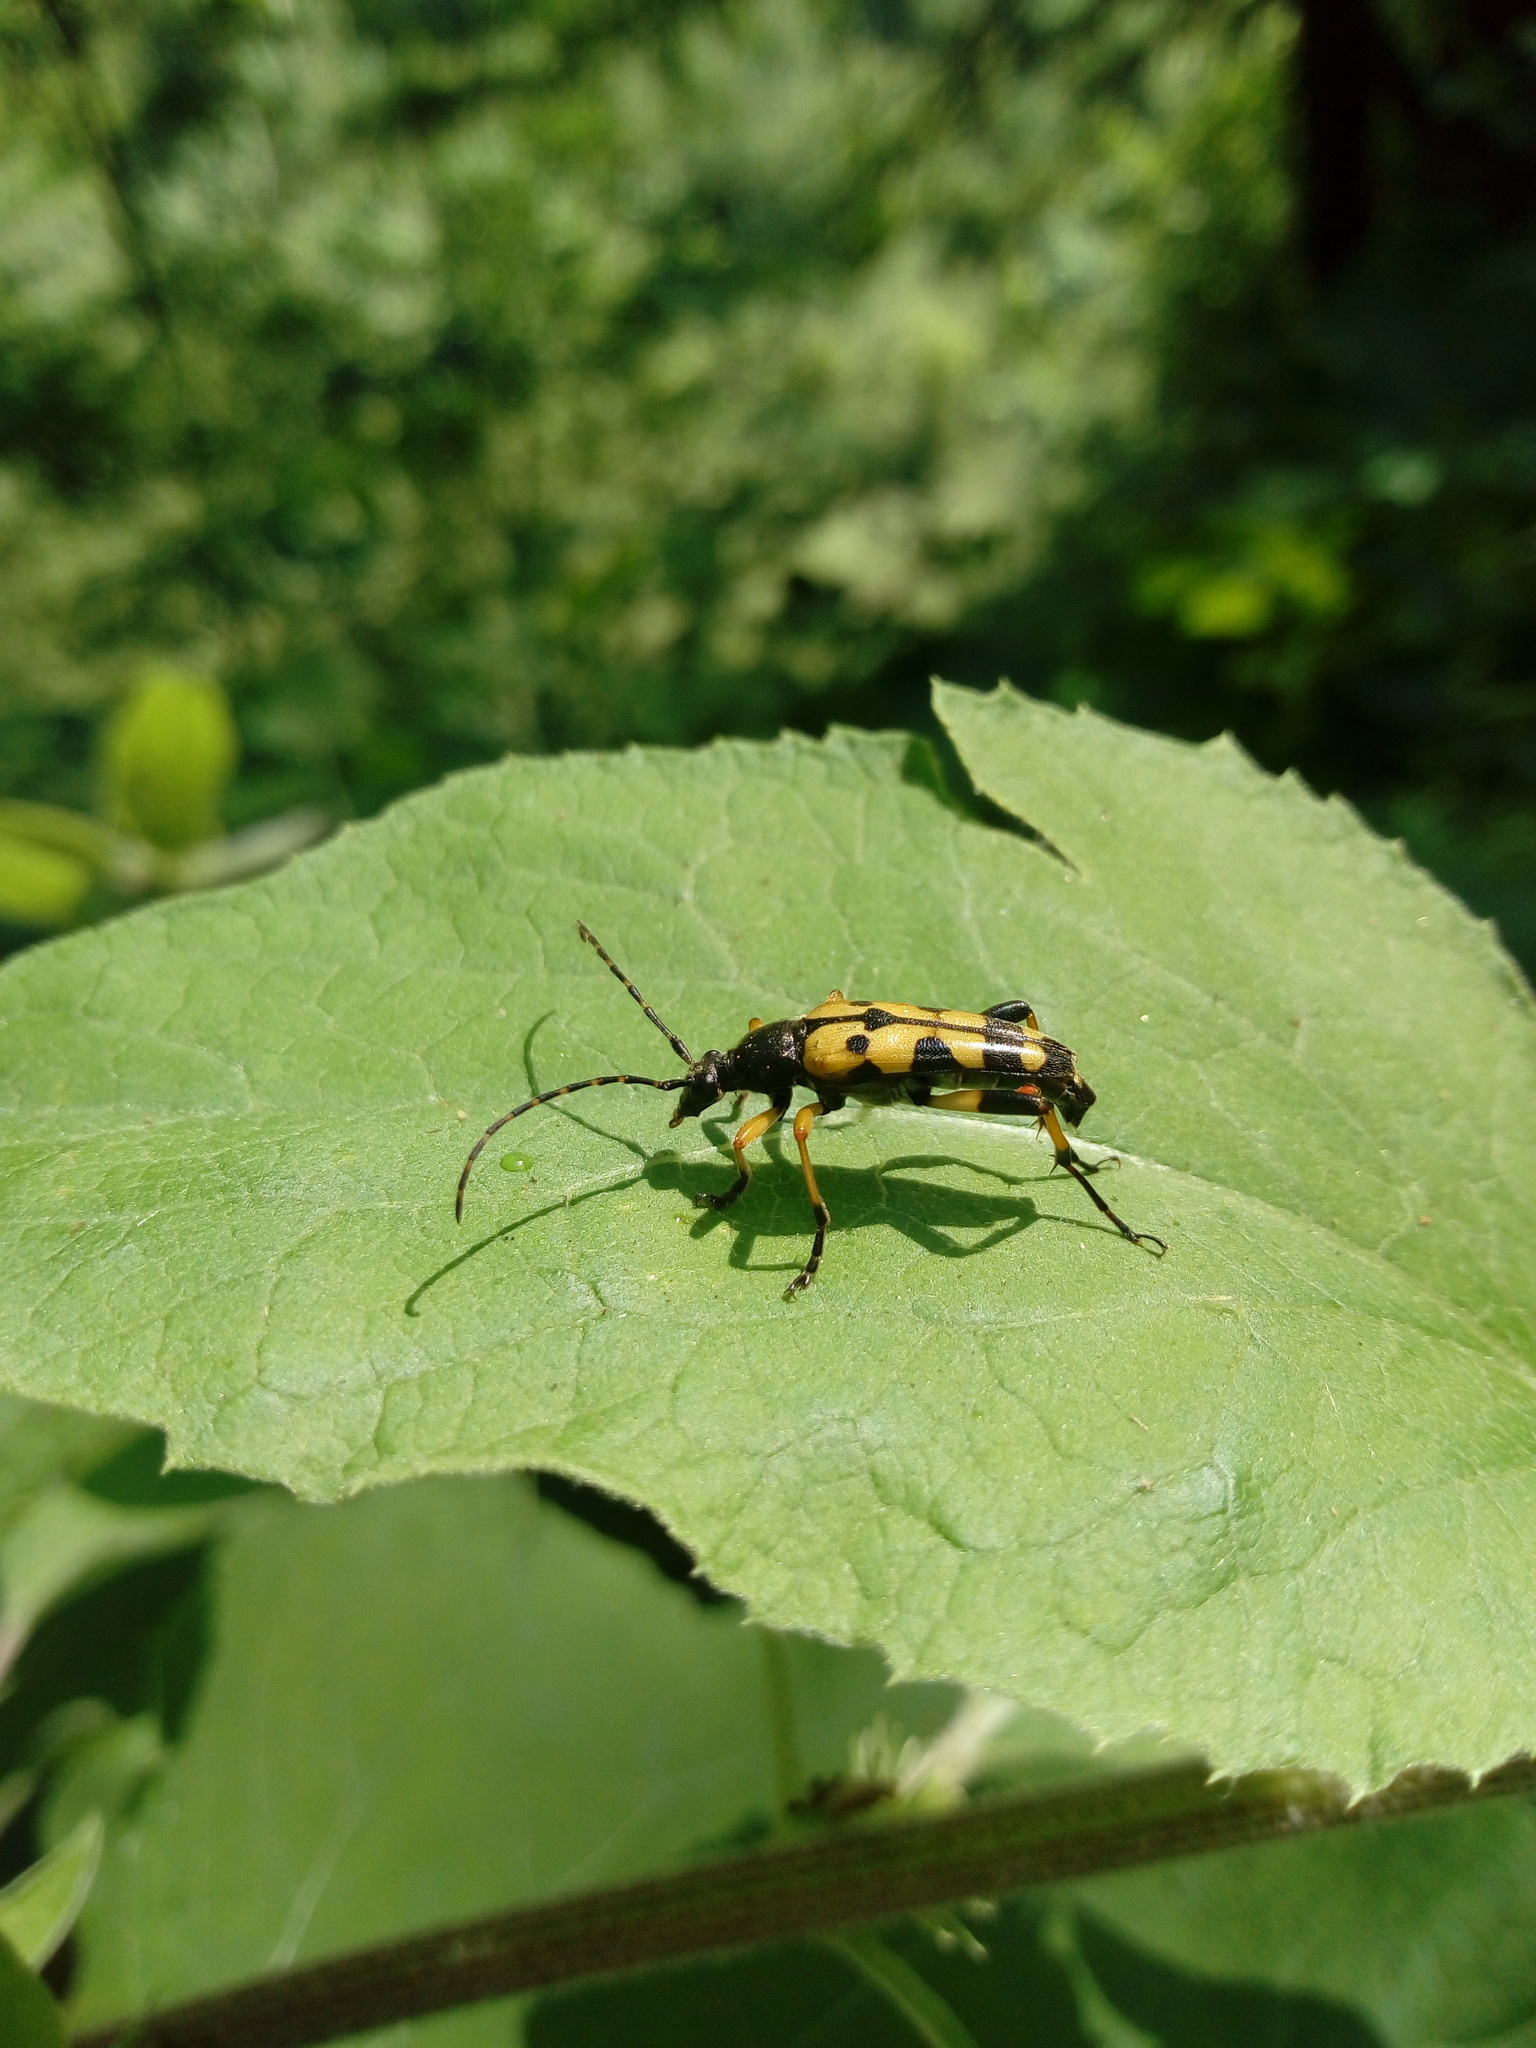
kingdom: Animalia
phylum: Arthropoda
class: Insecta
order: Coleoptera
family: Cerambycidae
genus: Rutpela
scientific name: Rutpela maculata
